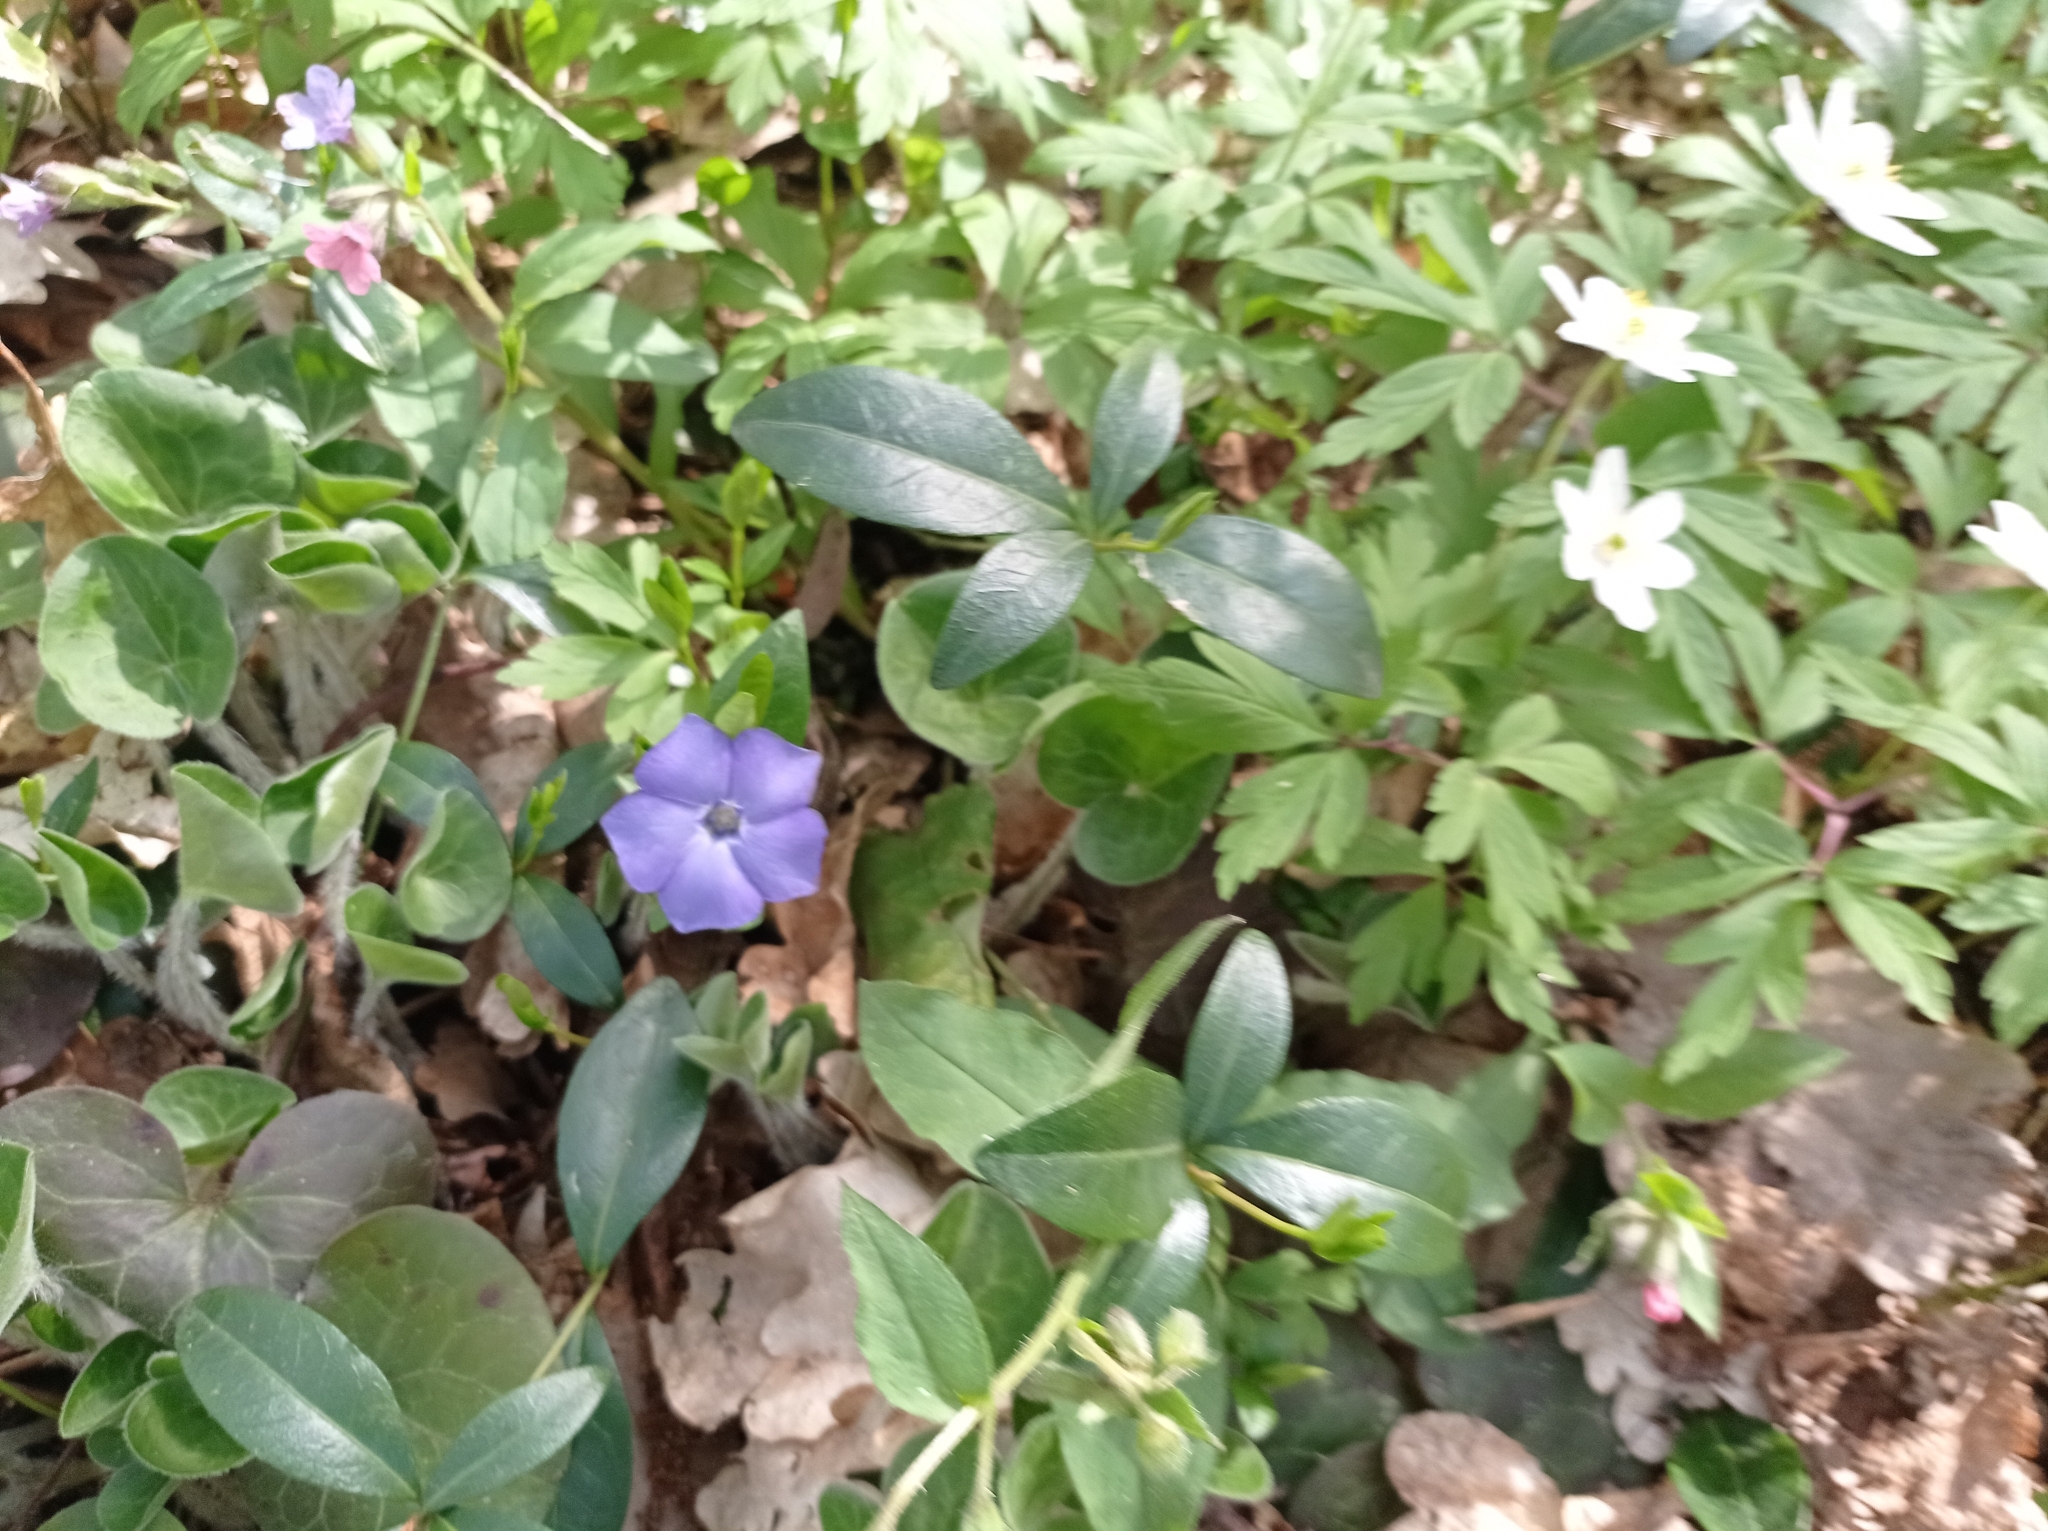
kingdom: Plantae
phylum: Tracheophyta
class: Magnoliopsida
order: Gentianales
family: Apocynaceae
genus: Vinca
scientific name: Vinca minor
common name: Lesser periwinkle
